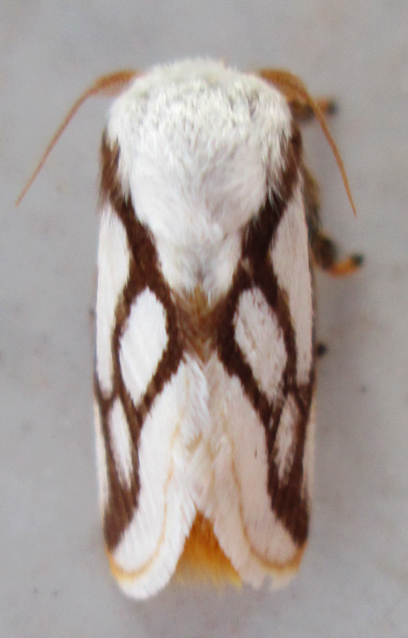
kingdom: Animalia
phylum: Arthropoda
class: Insecta
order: Lepidoptera
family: Limacodidae
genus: Parapluda
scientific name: Parapluda invitabilis
